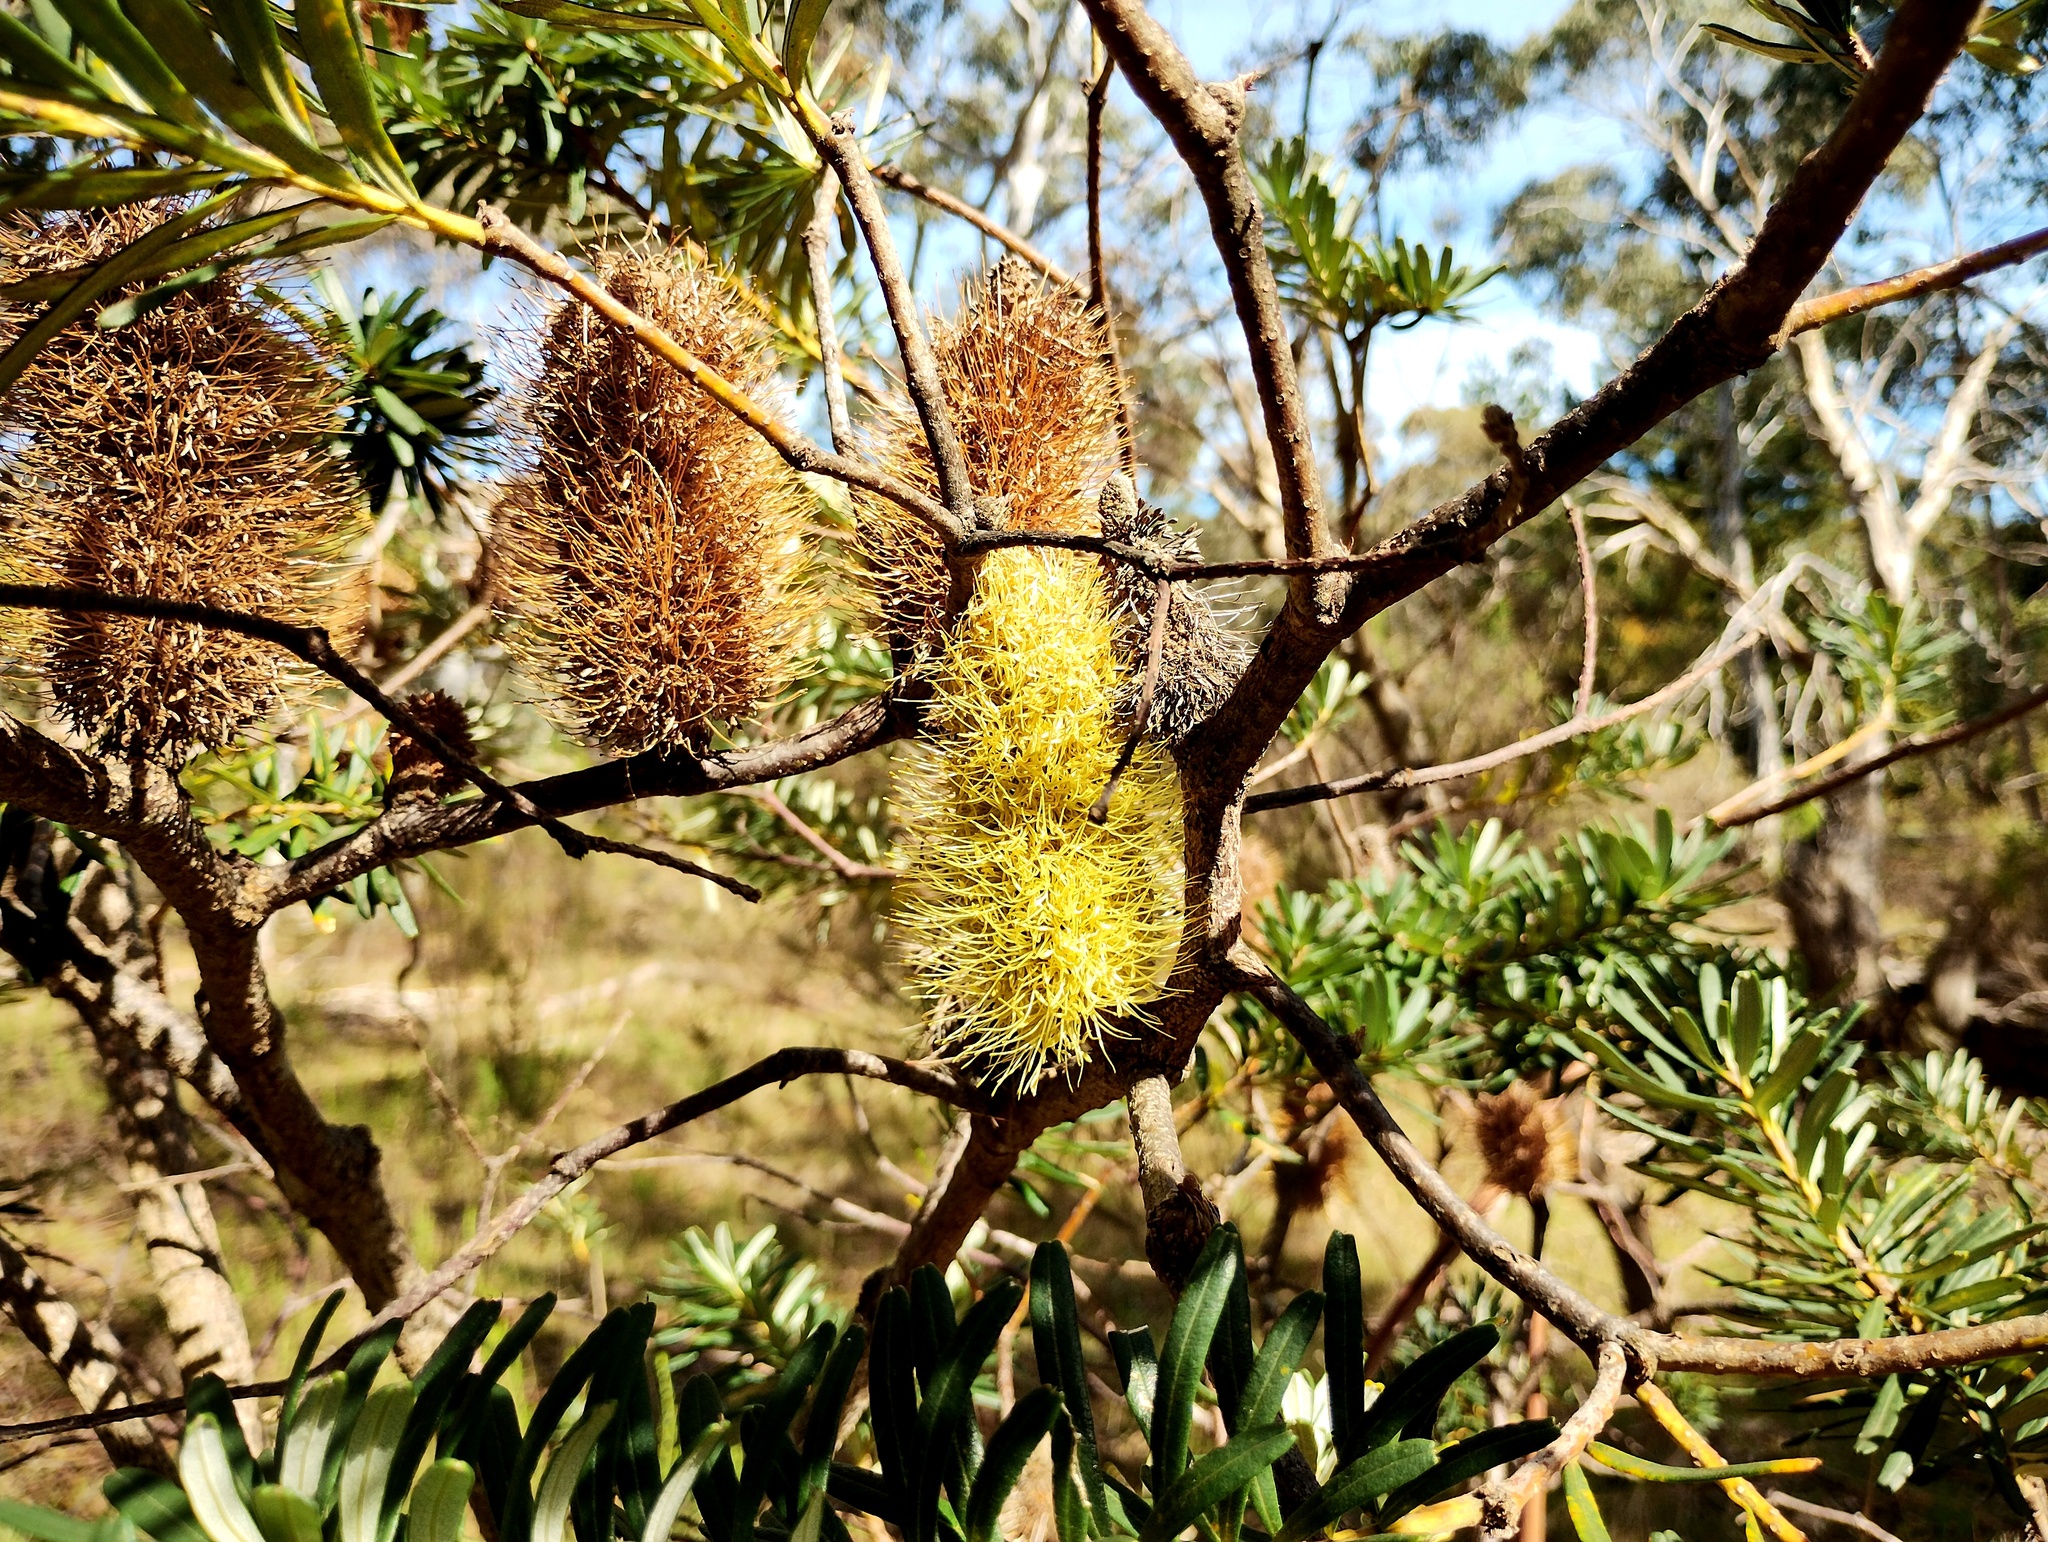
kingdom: Plantae
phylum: Tracheophyta
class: Magnoliopsida
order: Proteales
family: Proteaceae
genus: Banksia
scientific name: Banksia marginata
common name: Silver banksia
